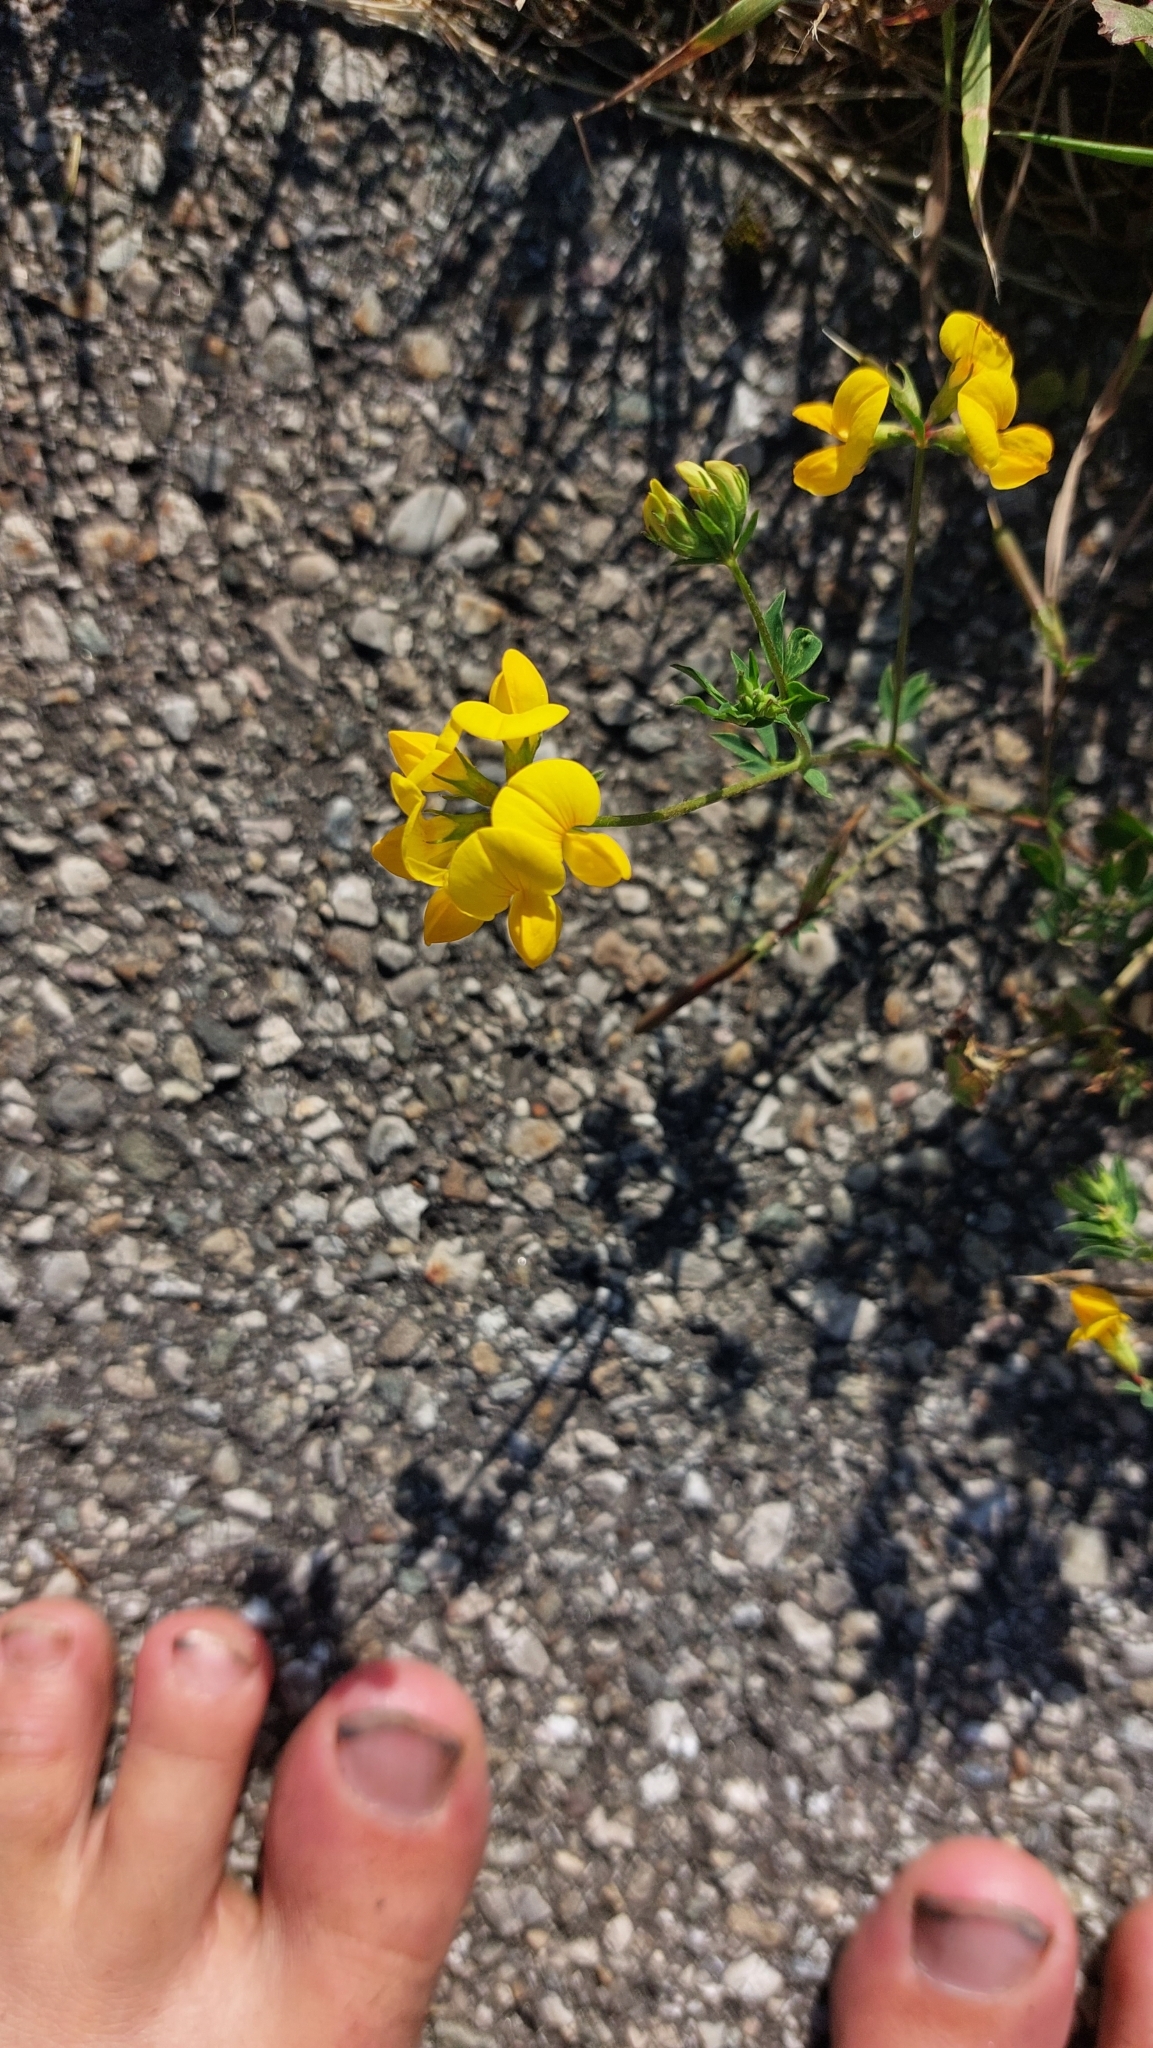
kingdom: Plantae
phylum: Tracheophyta
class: Magnoliopsida
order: Fabales
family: Fabaceae
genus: Lotus
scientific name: Lotus corniculatus
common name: Common bird's-foot-trefoil
